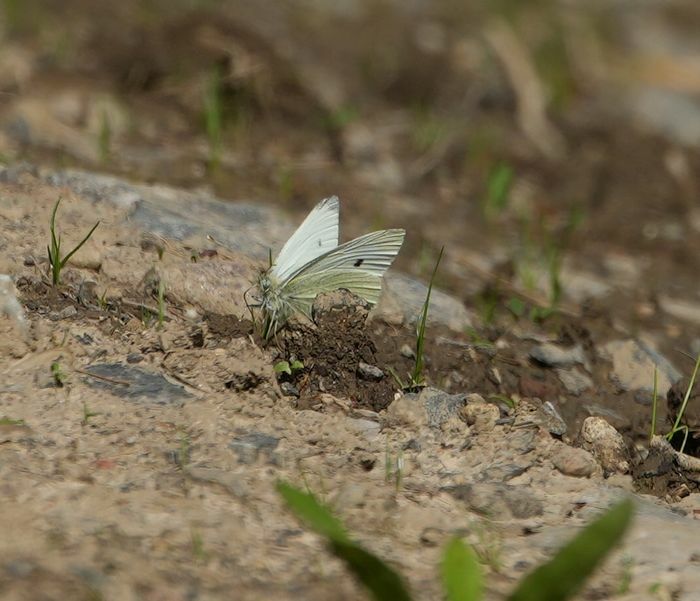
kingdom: Animalia
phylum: Arthropoda
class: Insecta
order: Lepidoptera
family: Pieridae
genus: Pieris
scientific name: Pieris rapae
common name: Small white
